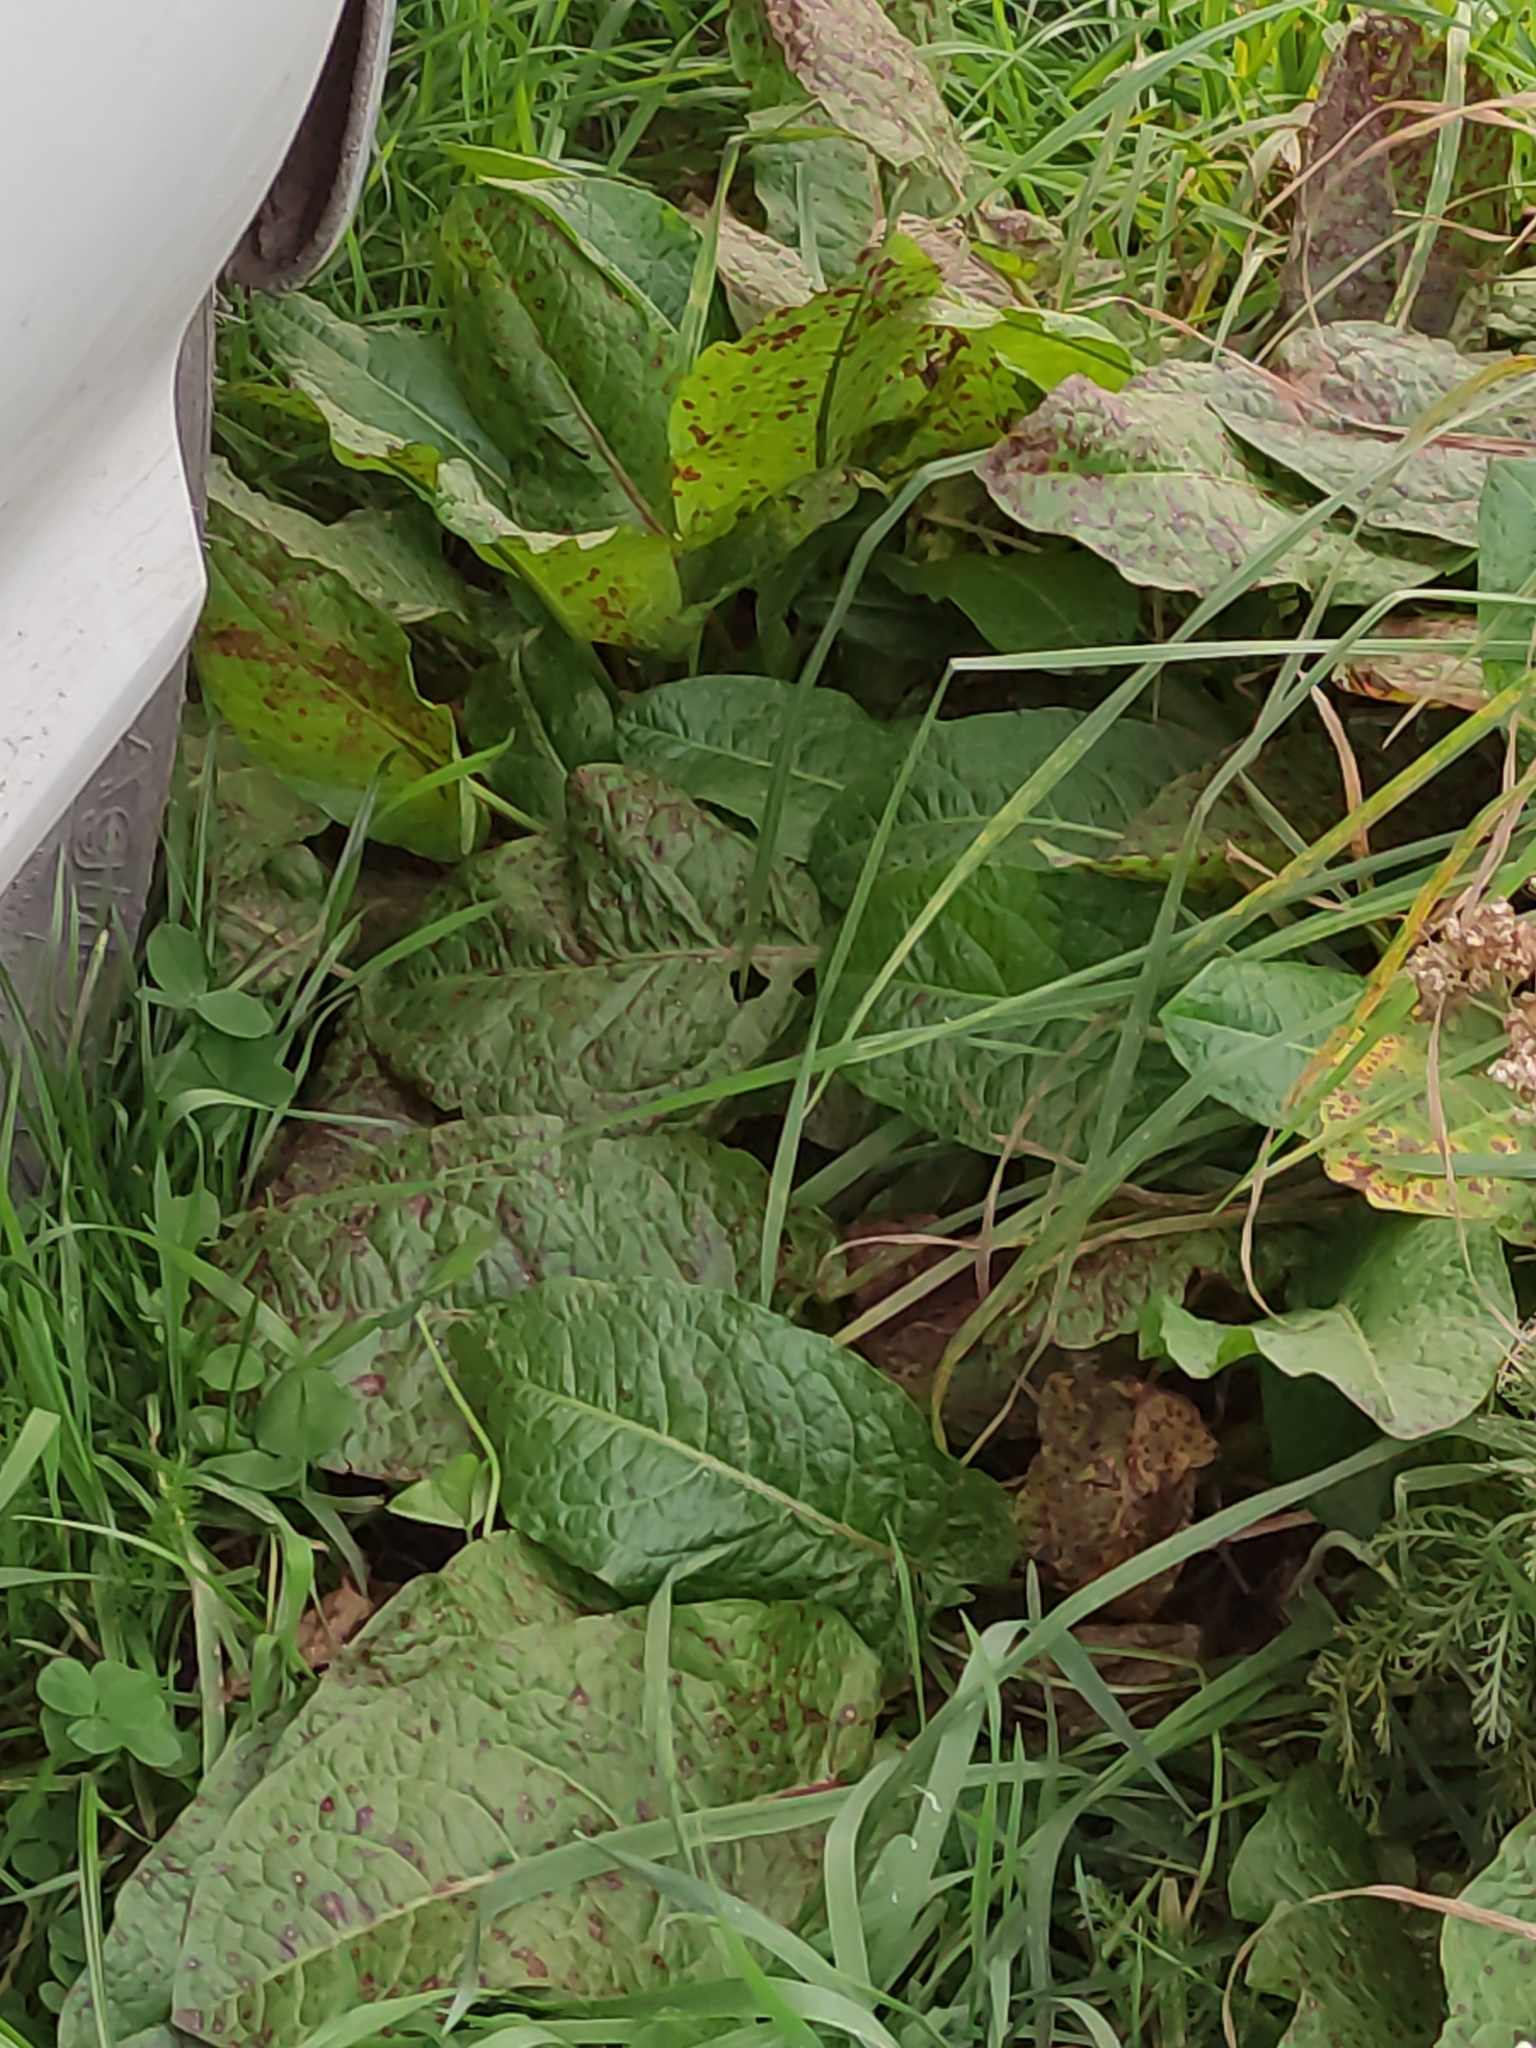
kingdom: Plantae
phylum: Tracheophyta
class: Magnoliopsida
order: Caryophyllales
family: Polygonaceae
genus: Rumex
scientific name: Rumex obtusifolius
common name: Bitter dock
